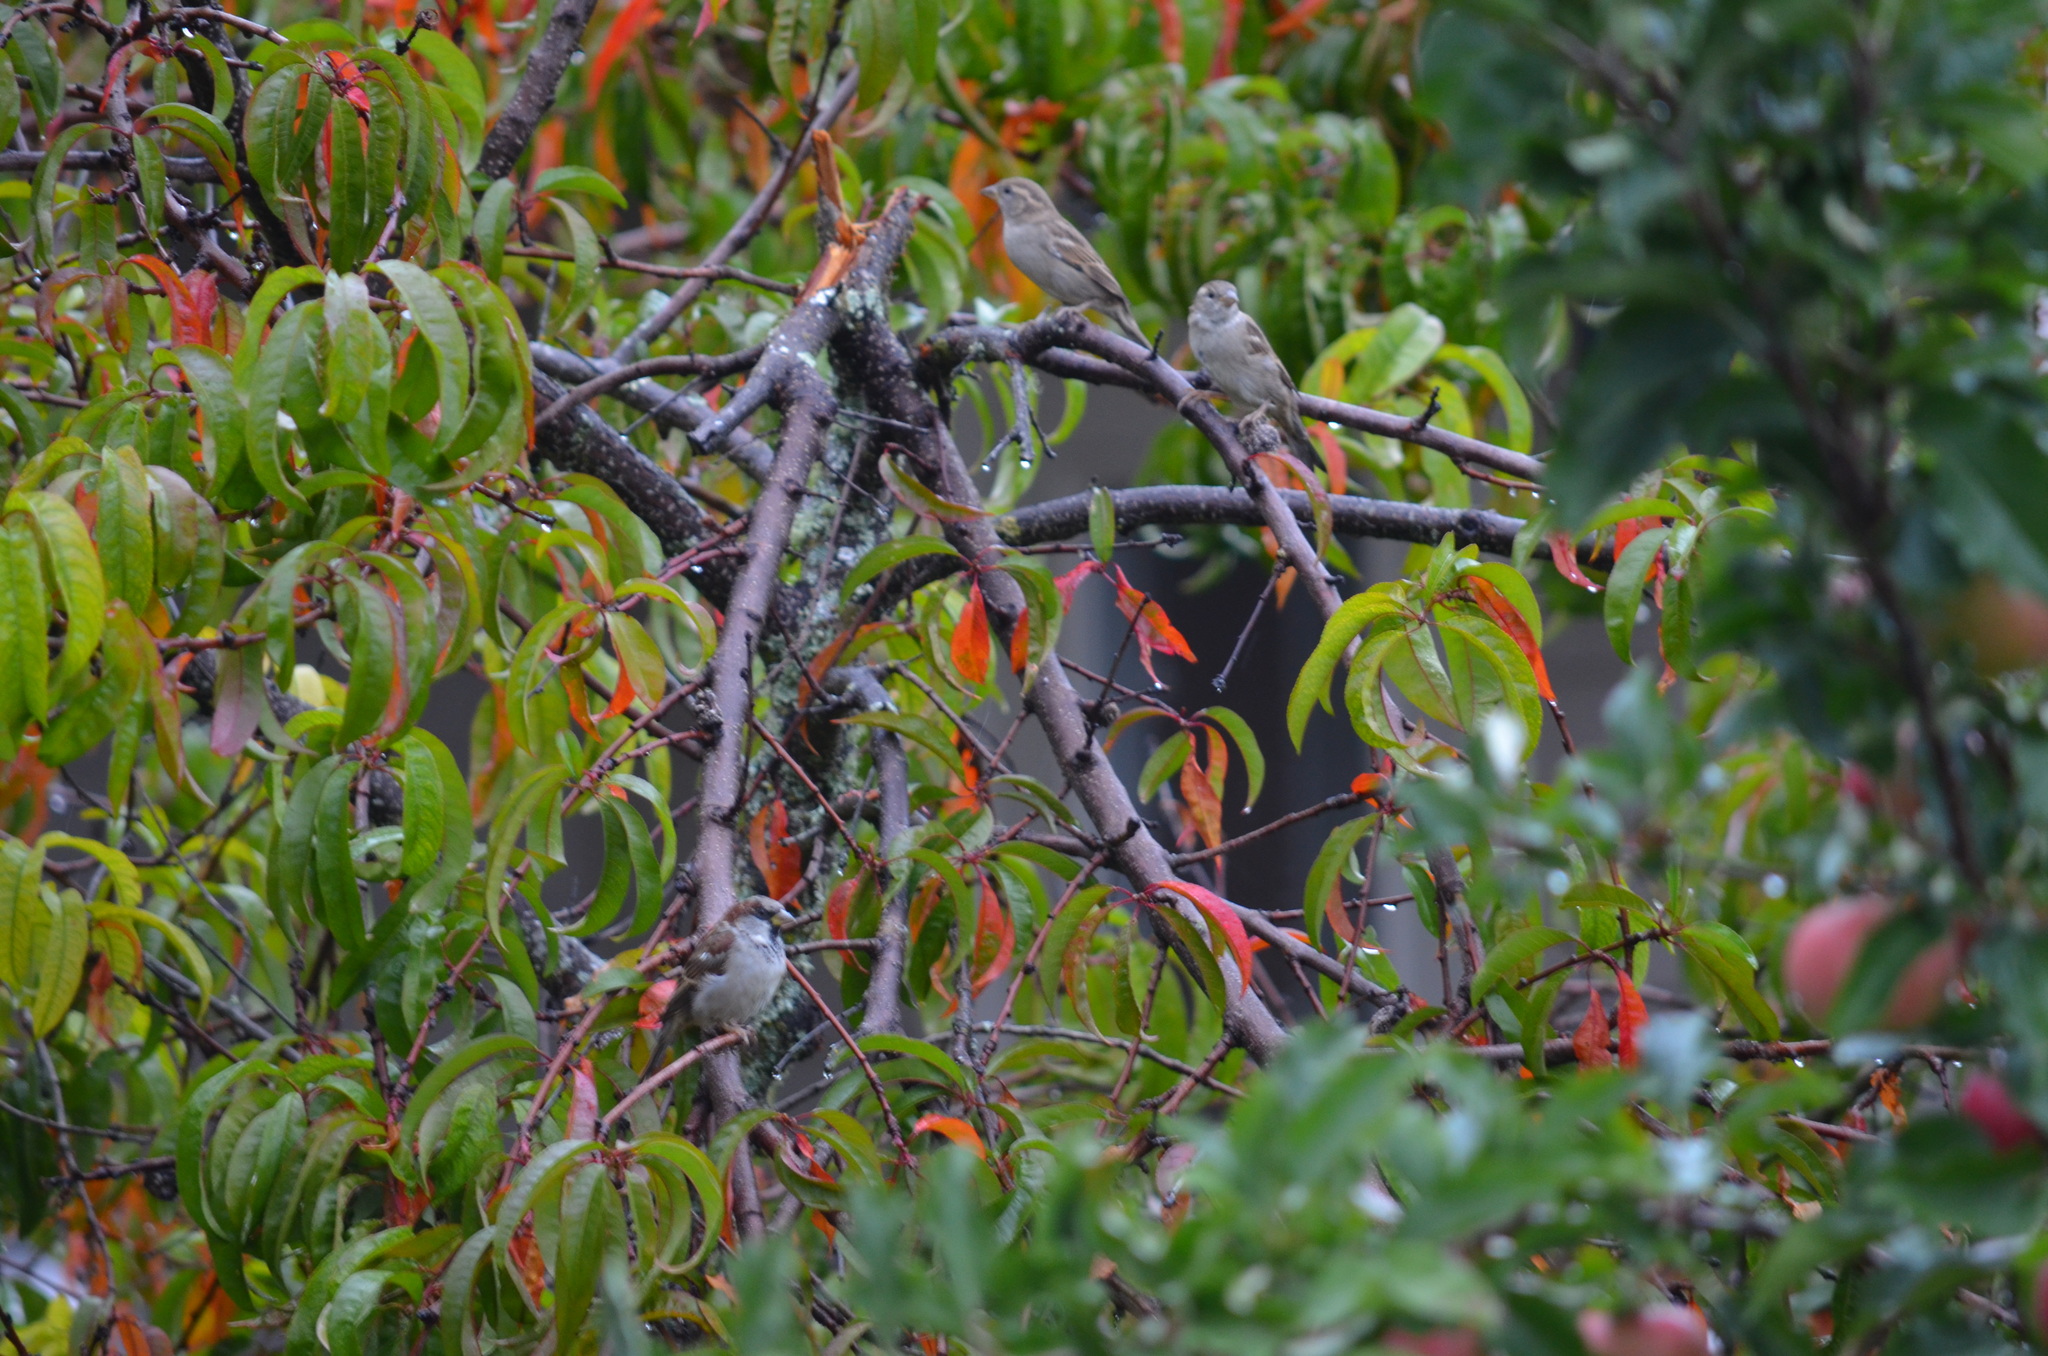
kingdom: Animalia
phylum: Chordata
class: Aves
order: Passeriformes
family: Passeridae
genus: Passer
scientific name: Passer domesticus
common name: House sparrow
